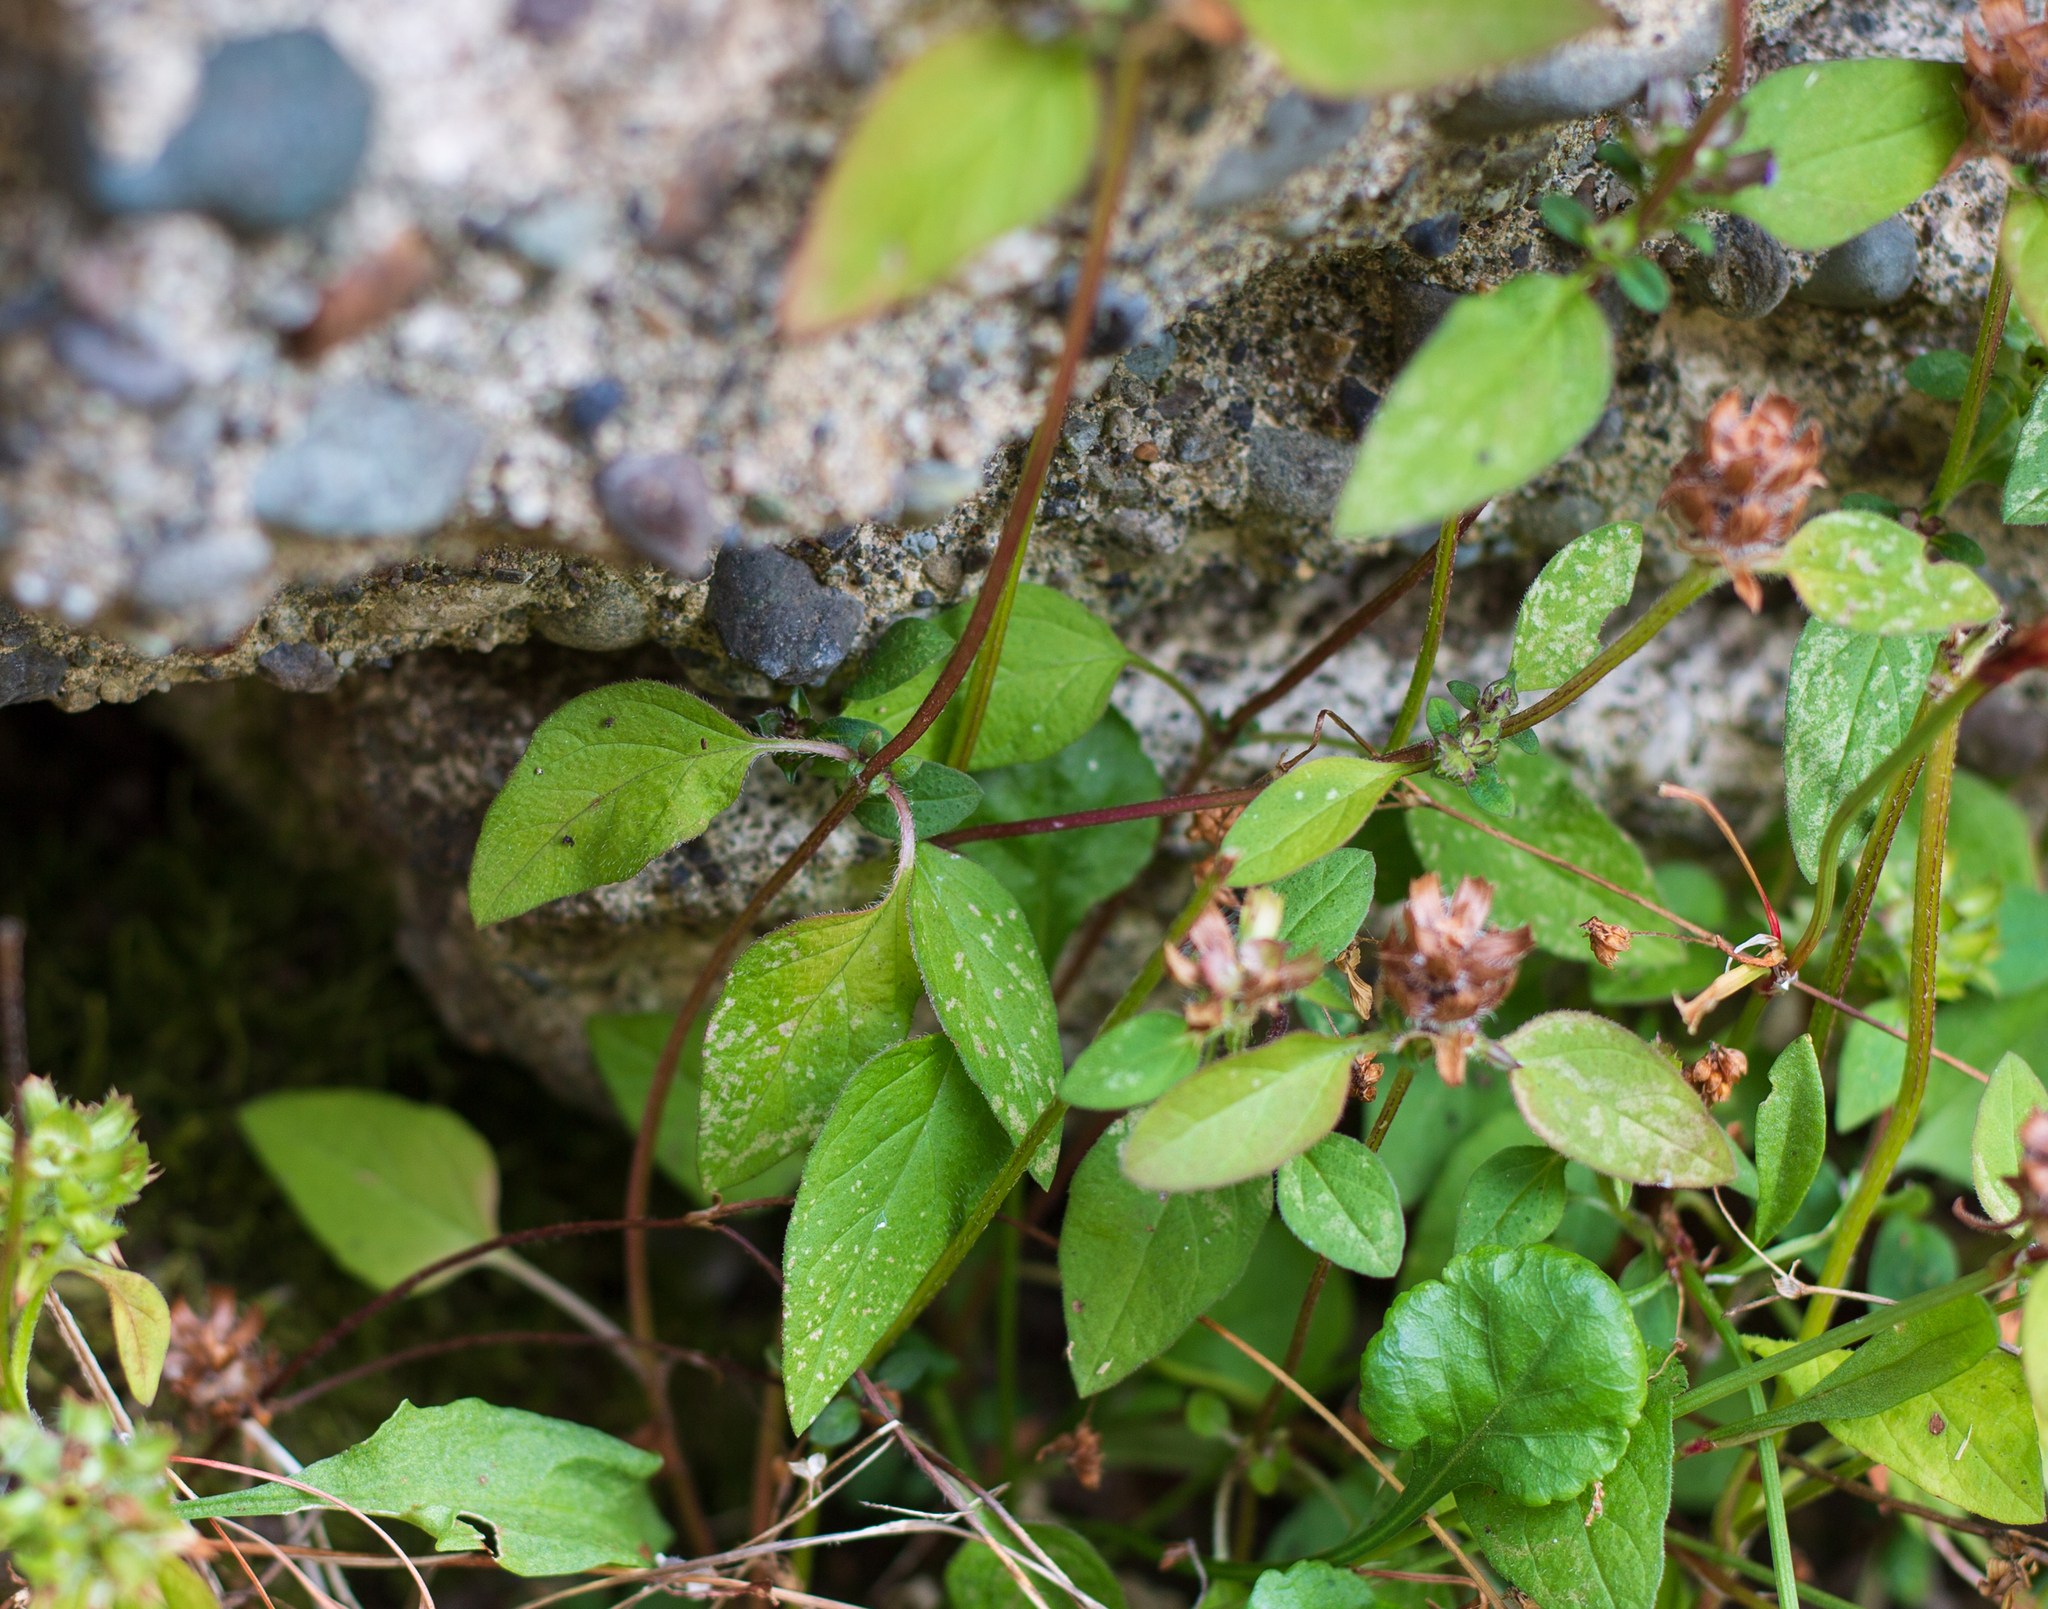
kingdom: Plantae
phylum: Tracheophyta
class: Magnoliopsida
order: Lamiales
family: Lamiaceae
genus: Prunella
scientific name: Prunella vulgaris
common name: Heal-all
